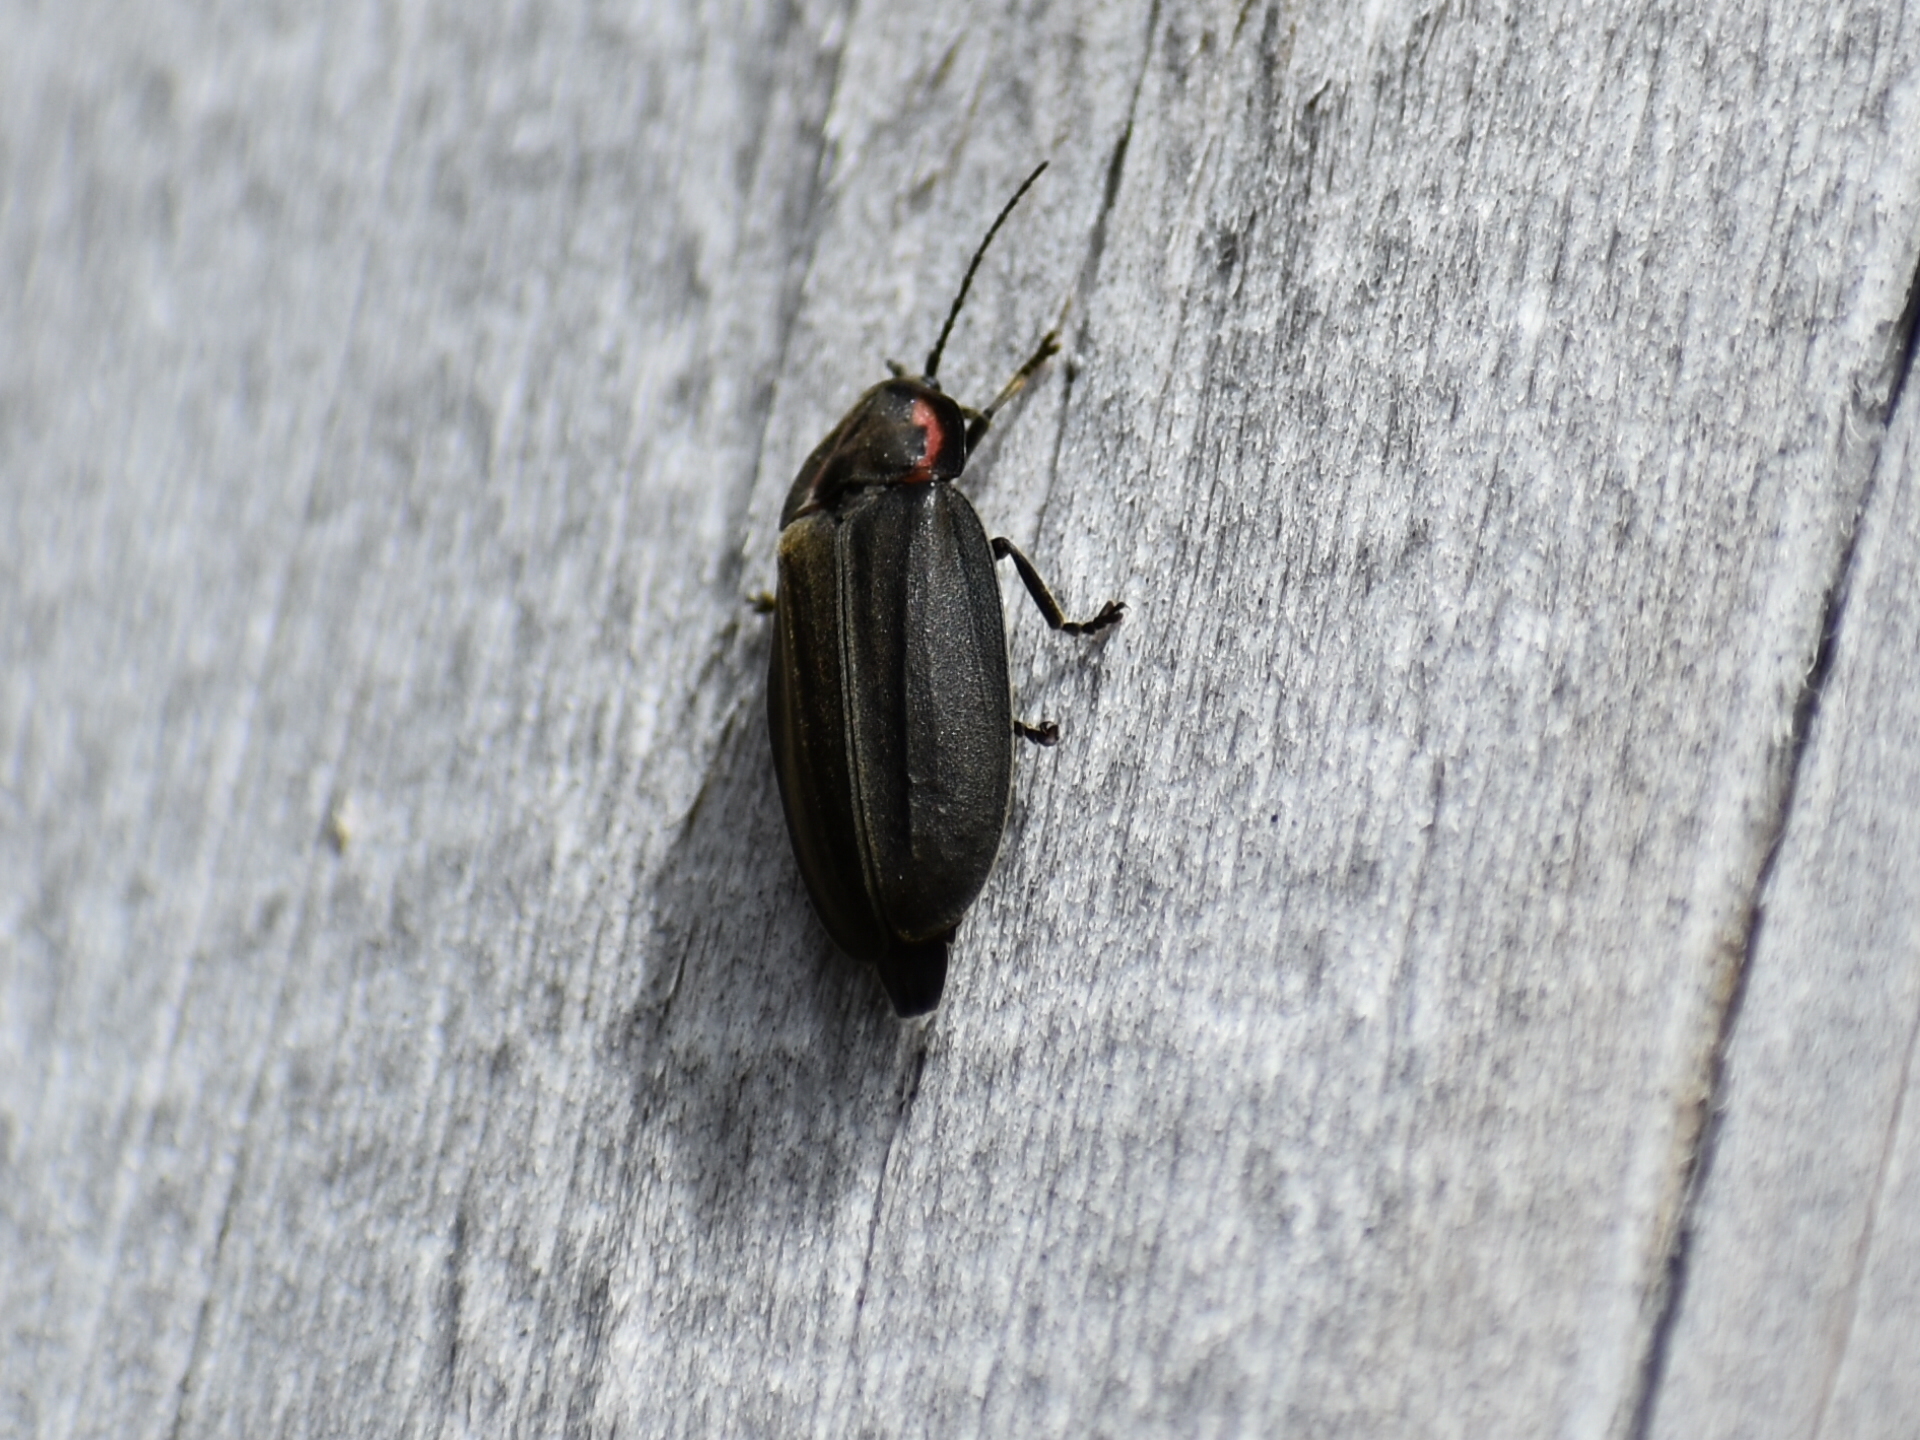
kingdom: Animalia
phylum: Arthropoda
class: Insecta
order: Coleoptera
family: Lampyridae
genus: Photinus
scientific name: Photinus corrusca
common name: Winter firefly
